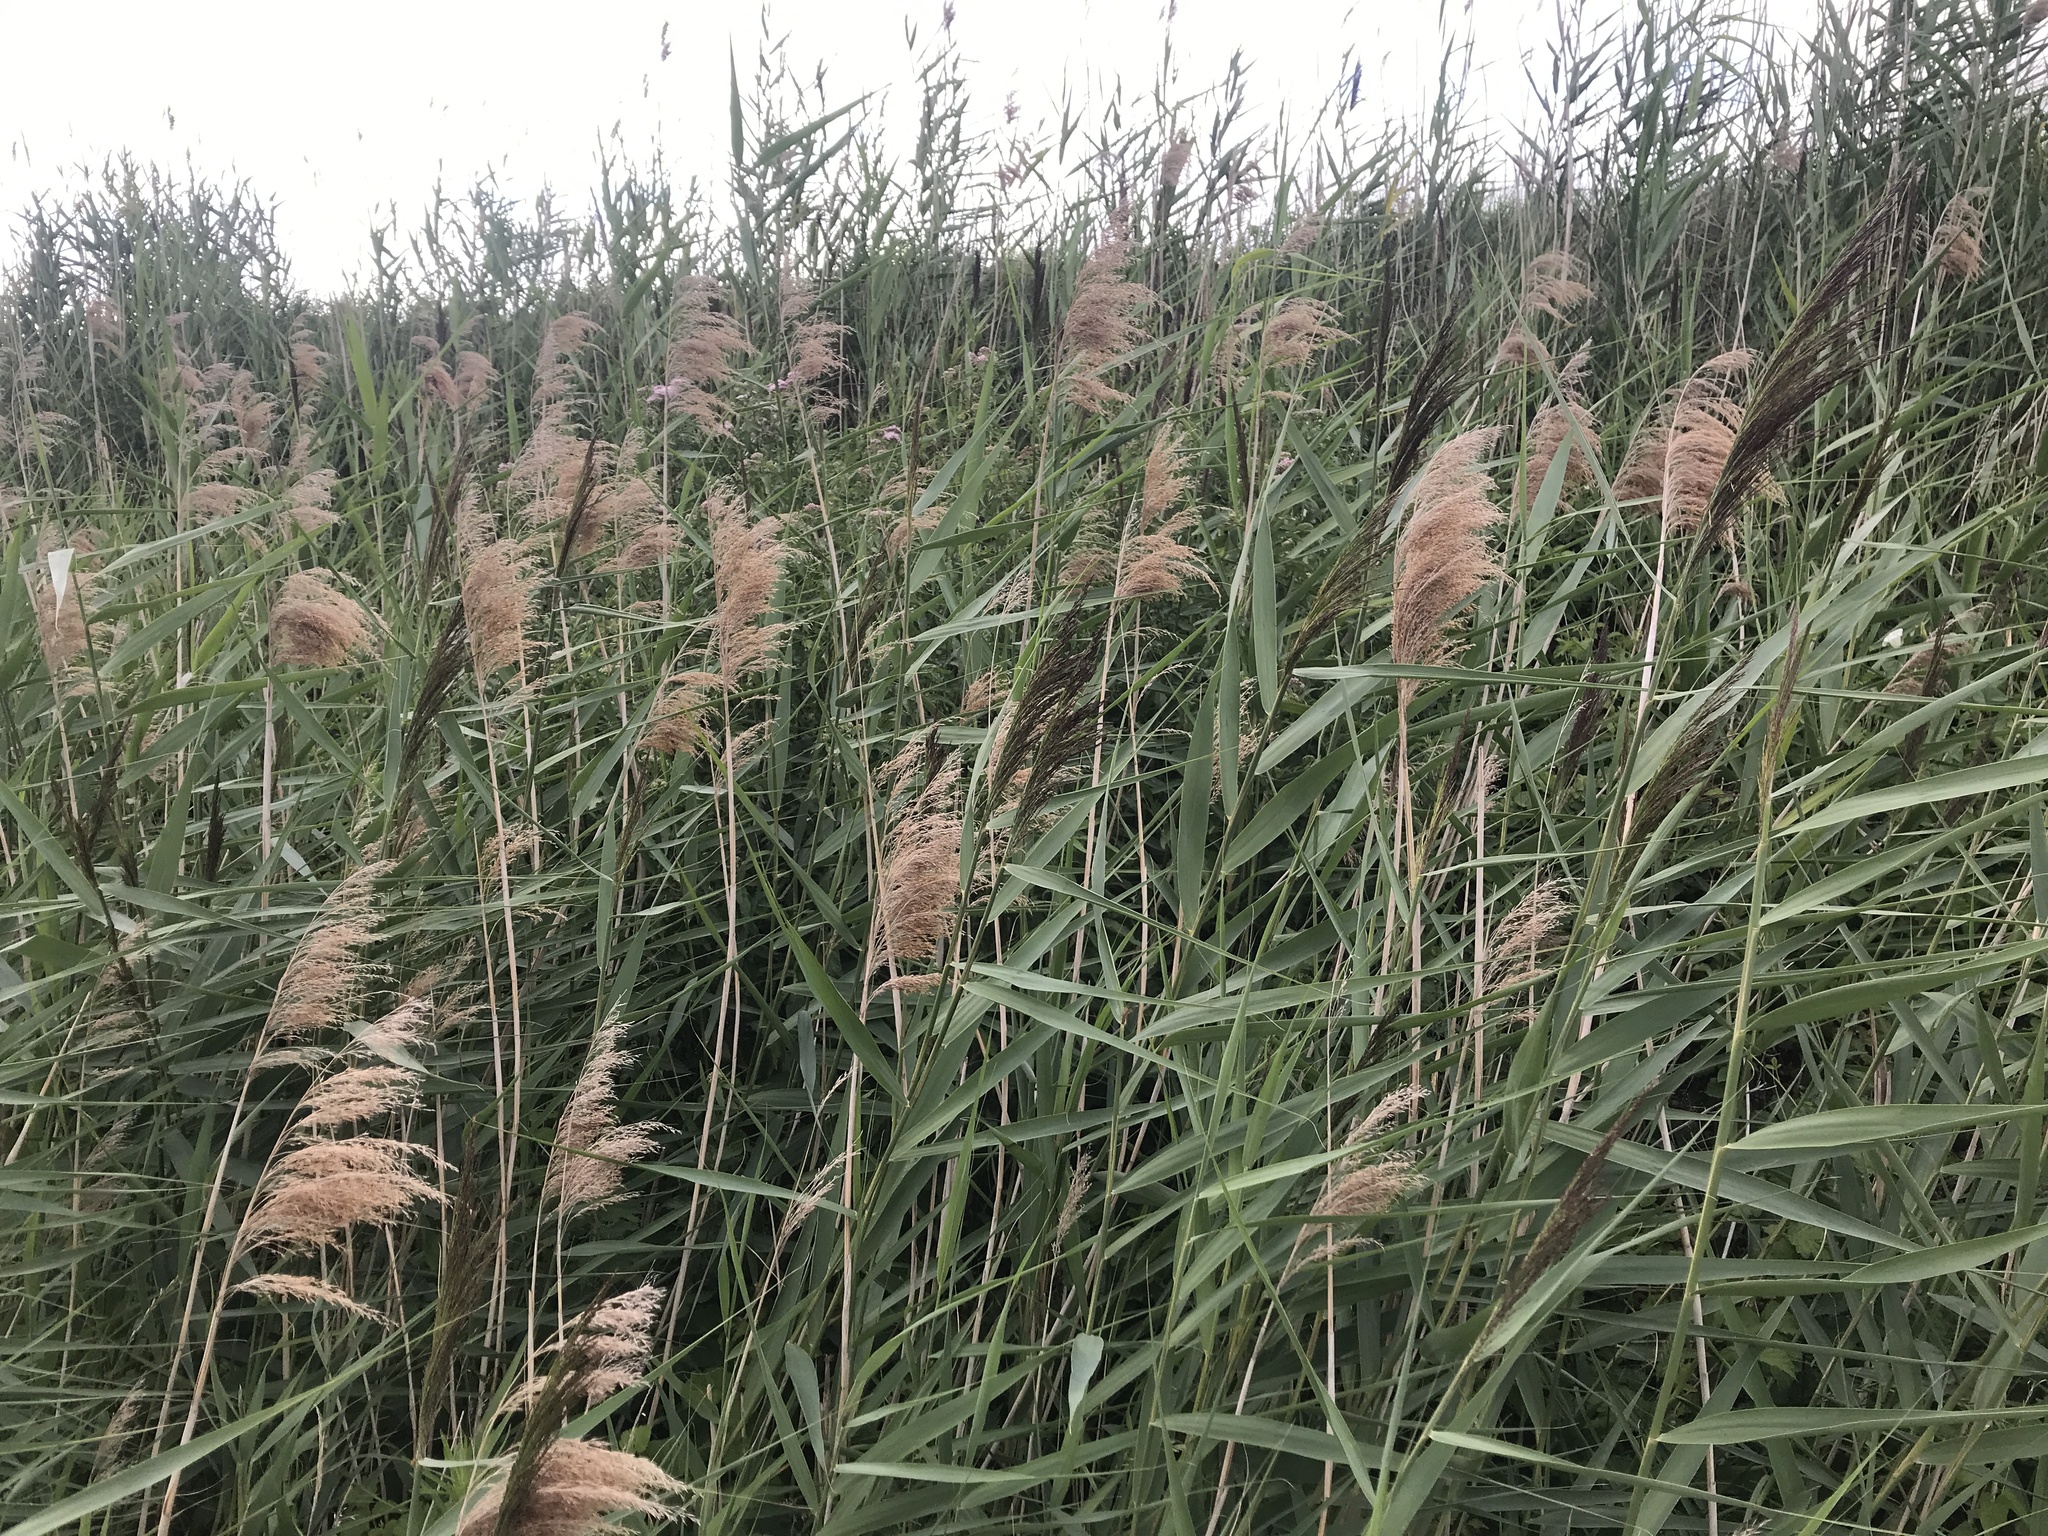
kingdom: Plantae
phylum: Tracheophyta
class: Liliopsida
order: Poales
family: Poaceae
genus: Phragmites
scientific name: Phragmites australis
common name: Common reed
